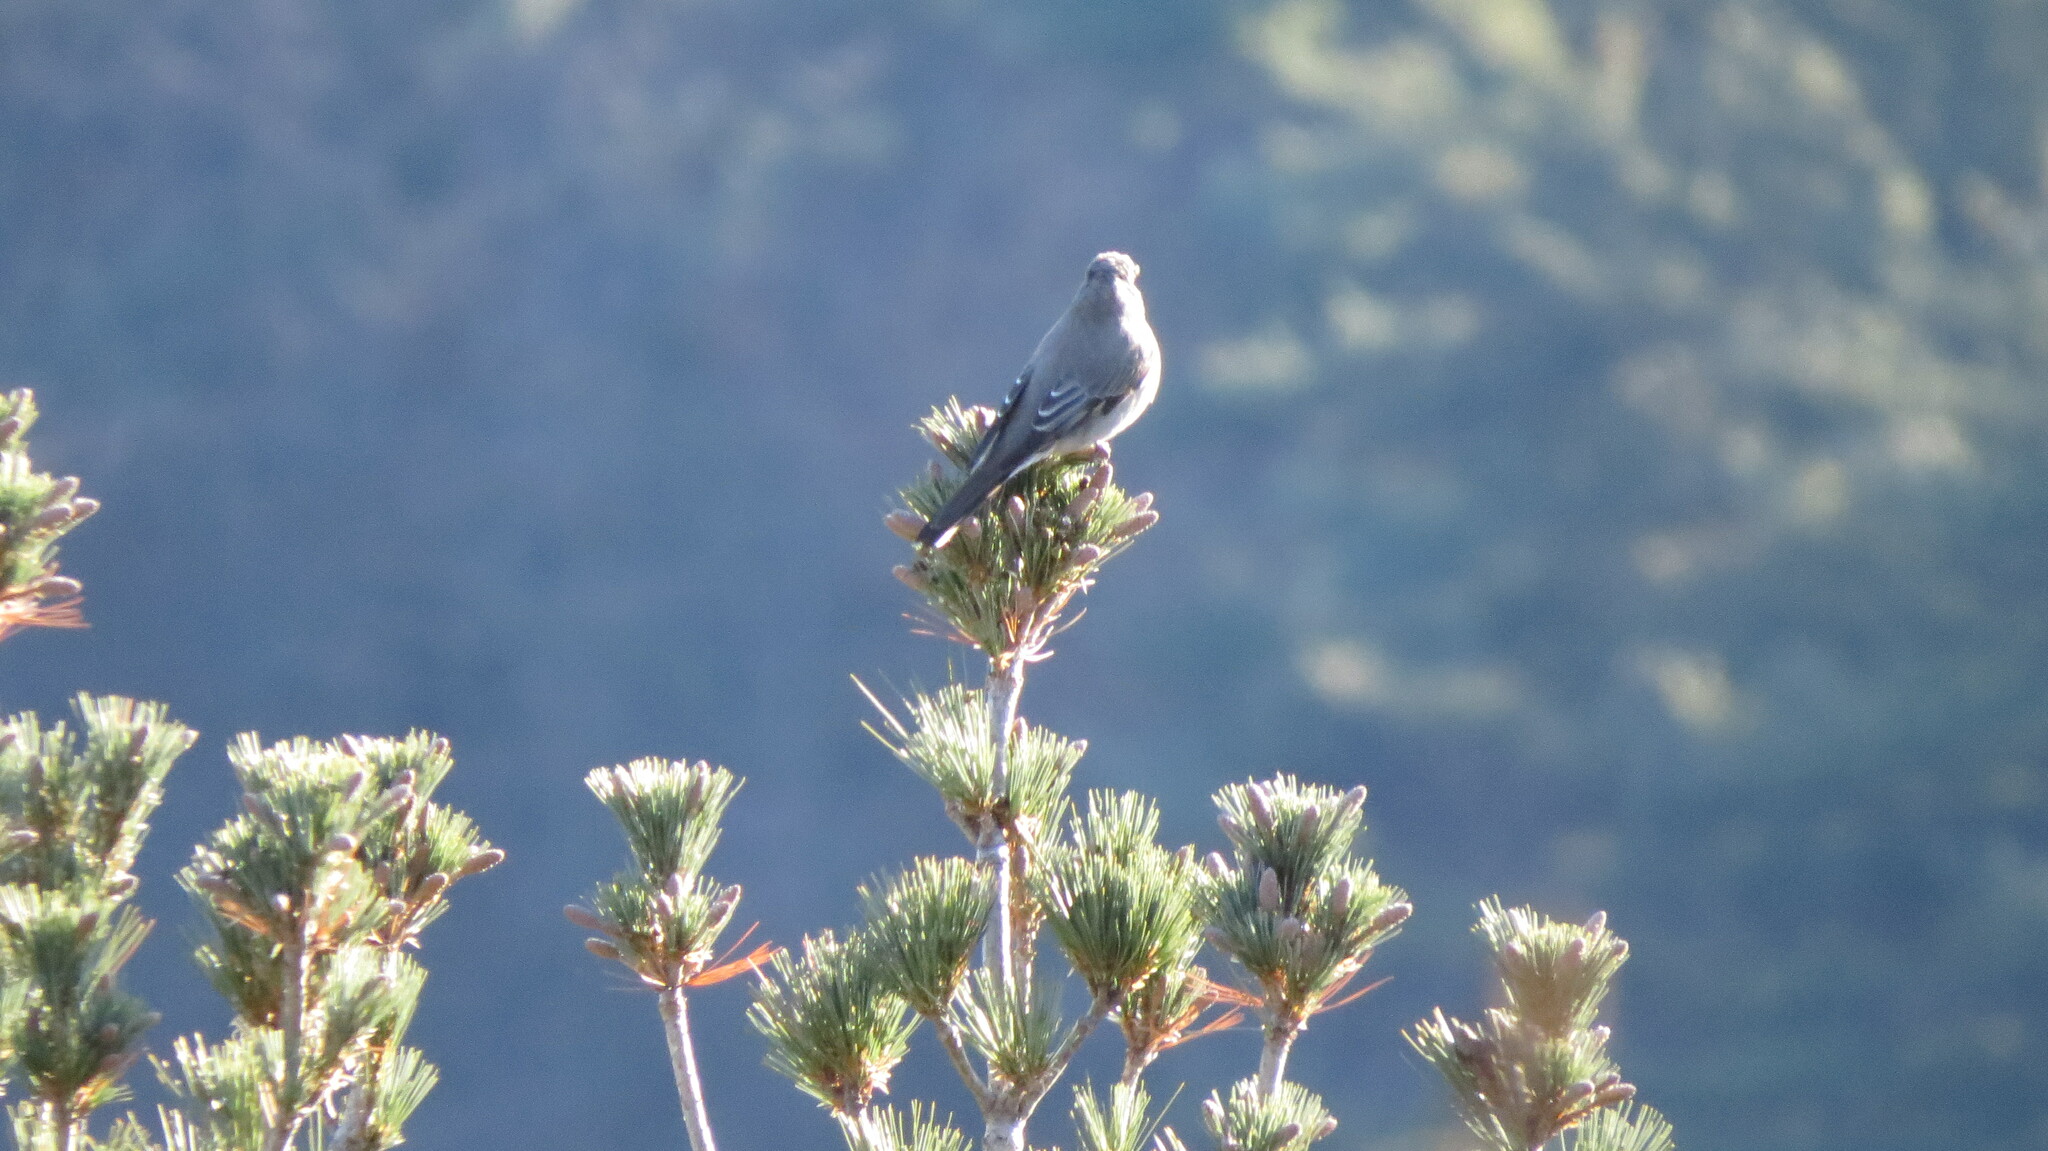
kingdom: Animalia
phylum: Chordata
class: Aves
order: Passeriformes
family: Turdidae
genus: Myadestes
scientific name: Myadestes townsendi
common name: Townsend's solitaire
